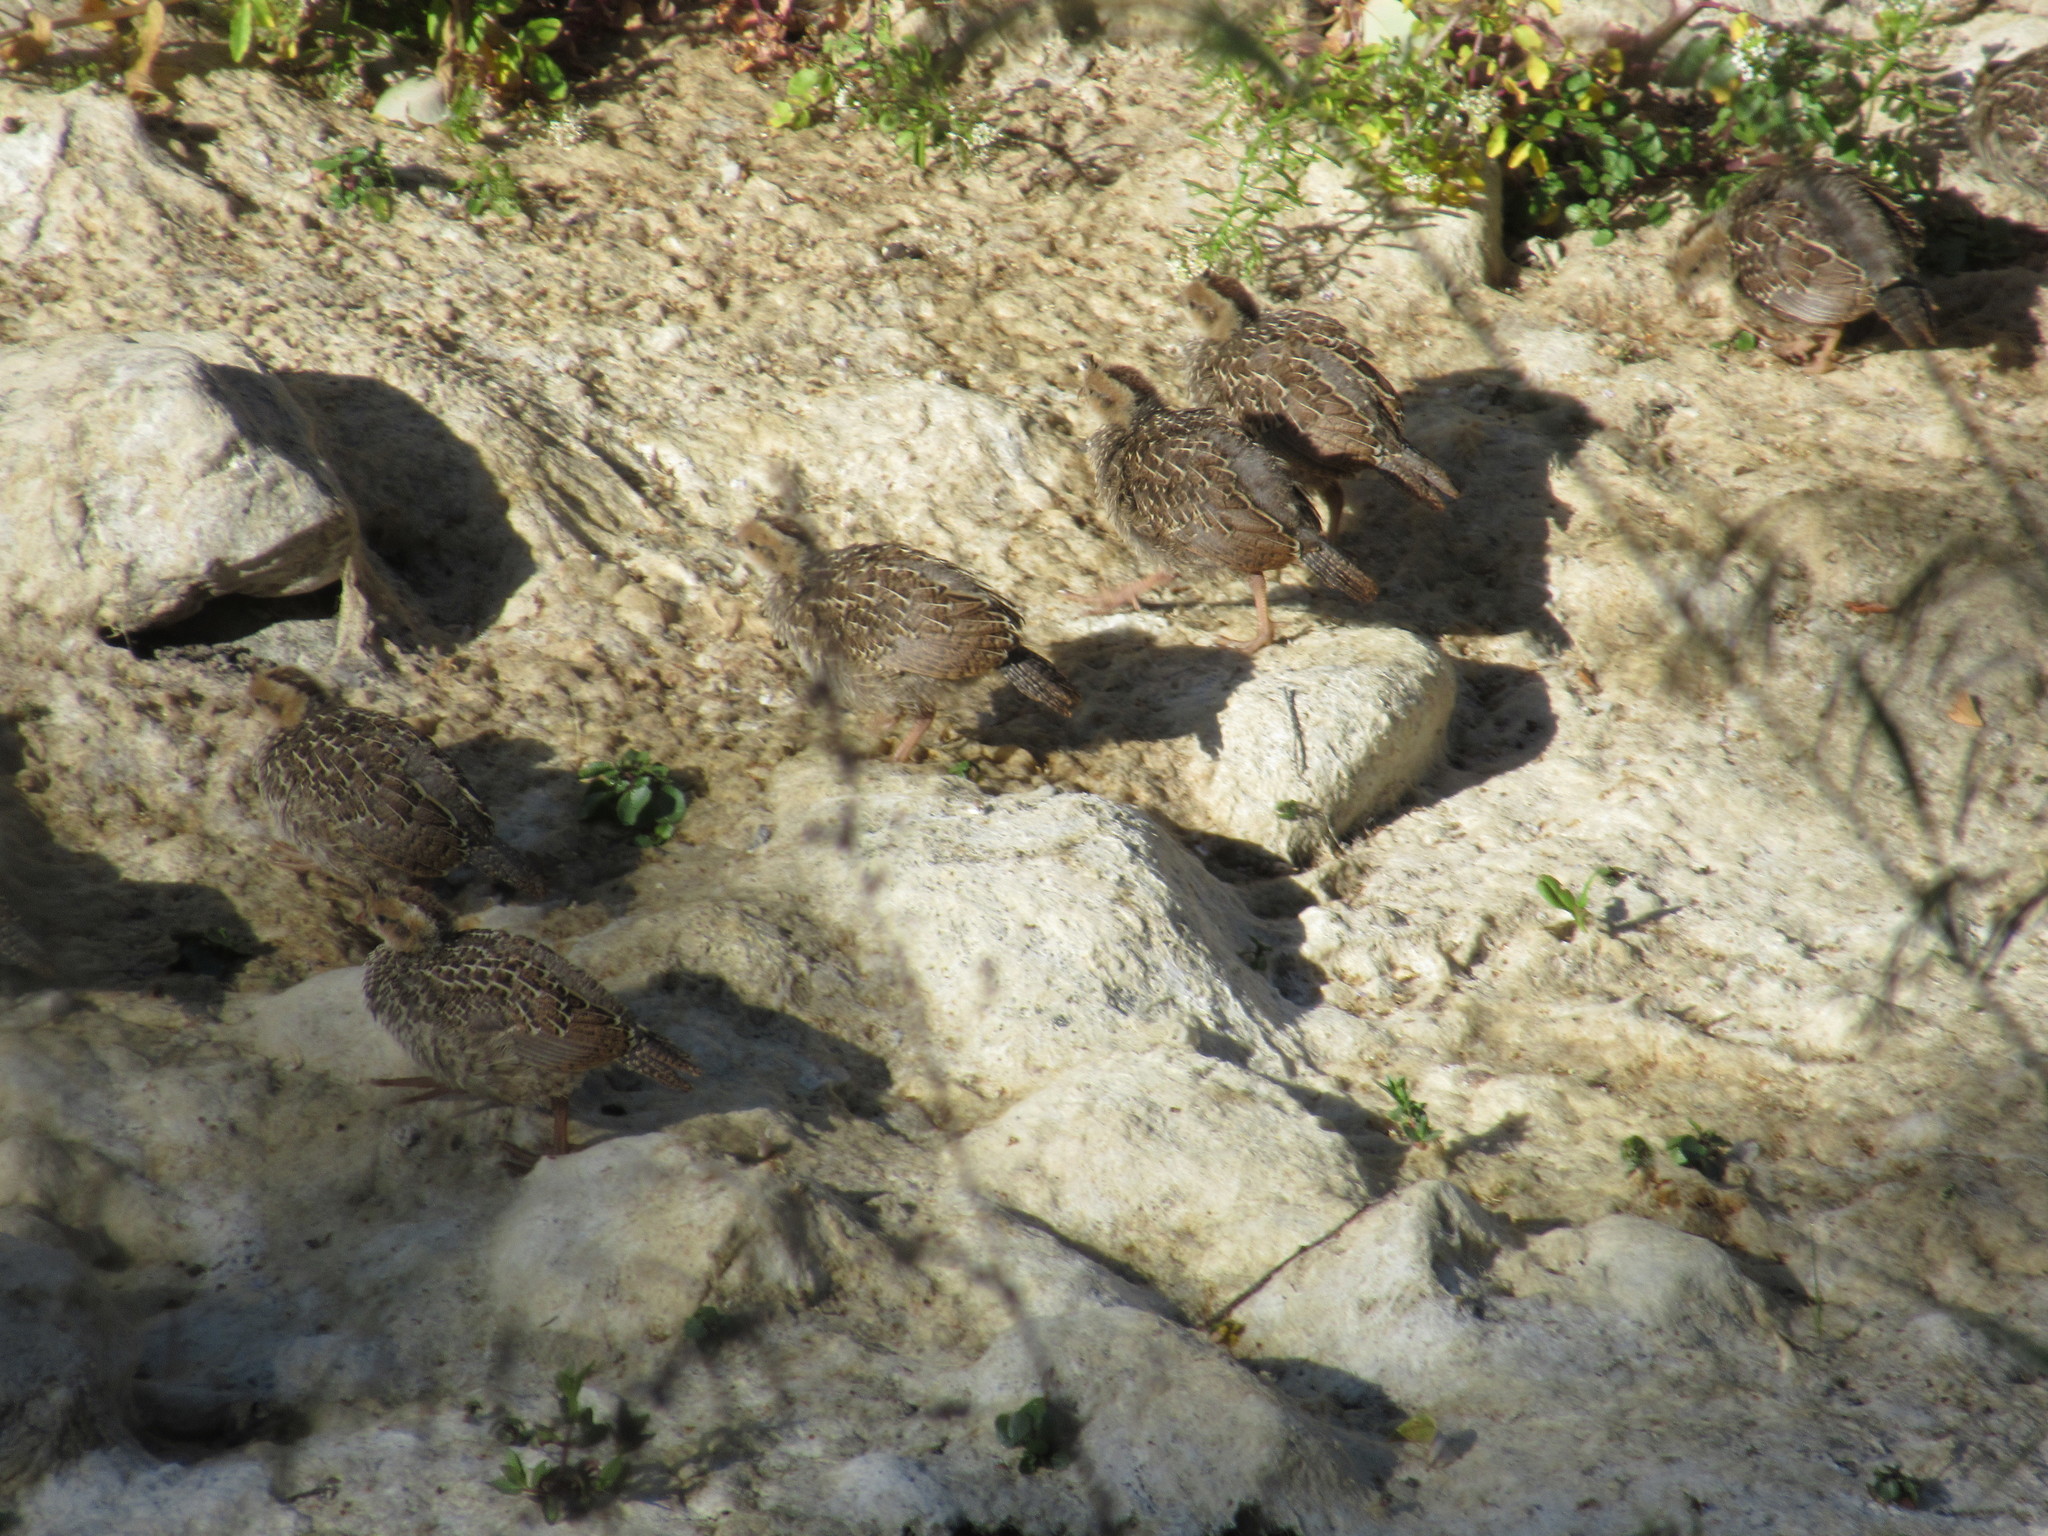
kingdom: Animalia
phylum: Chordata
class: Aves
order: Galliformes
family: Odontophoridae
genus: Callipepla
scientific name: Callipepla californica
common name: California quail
